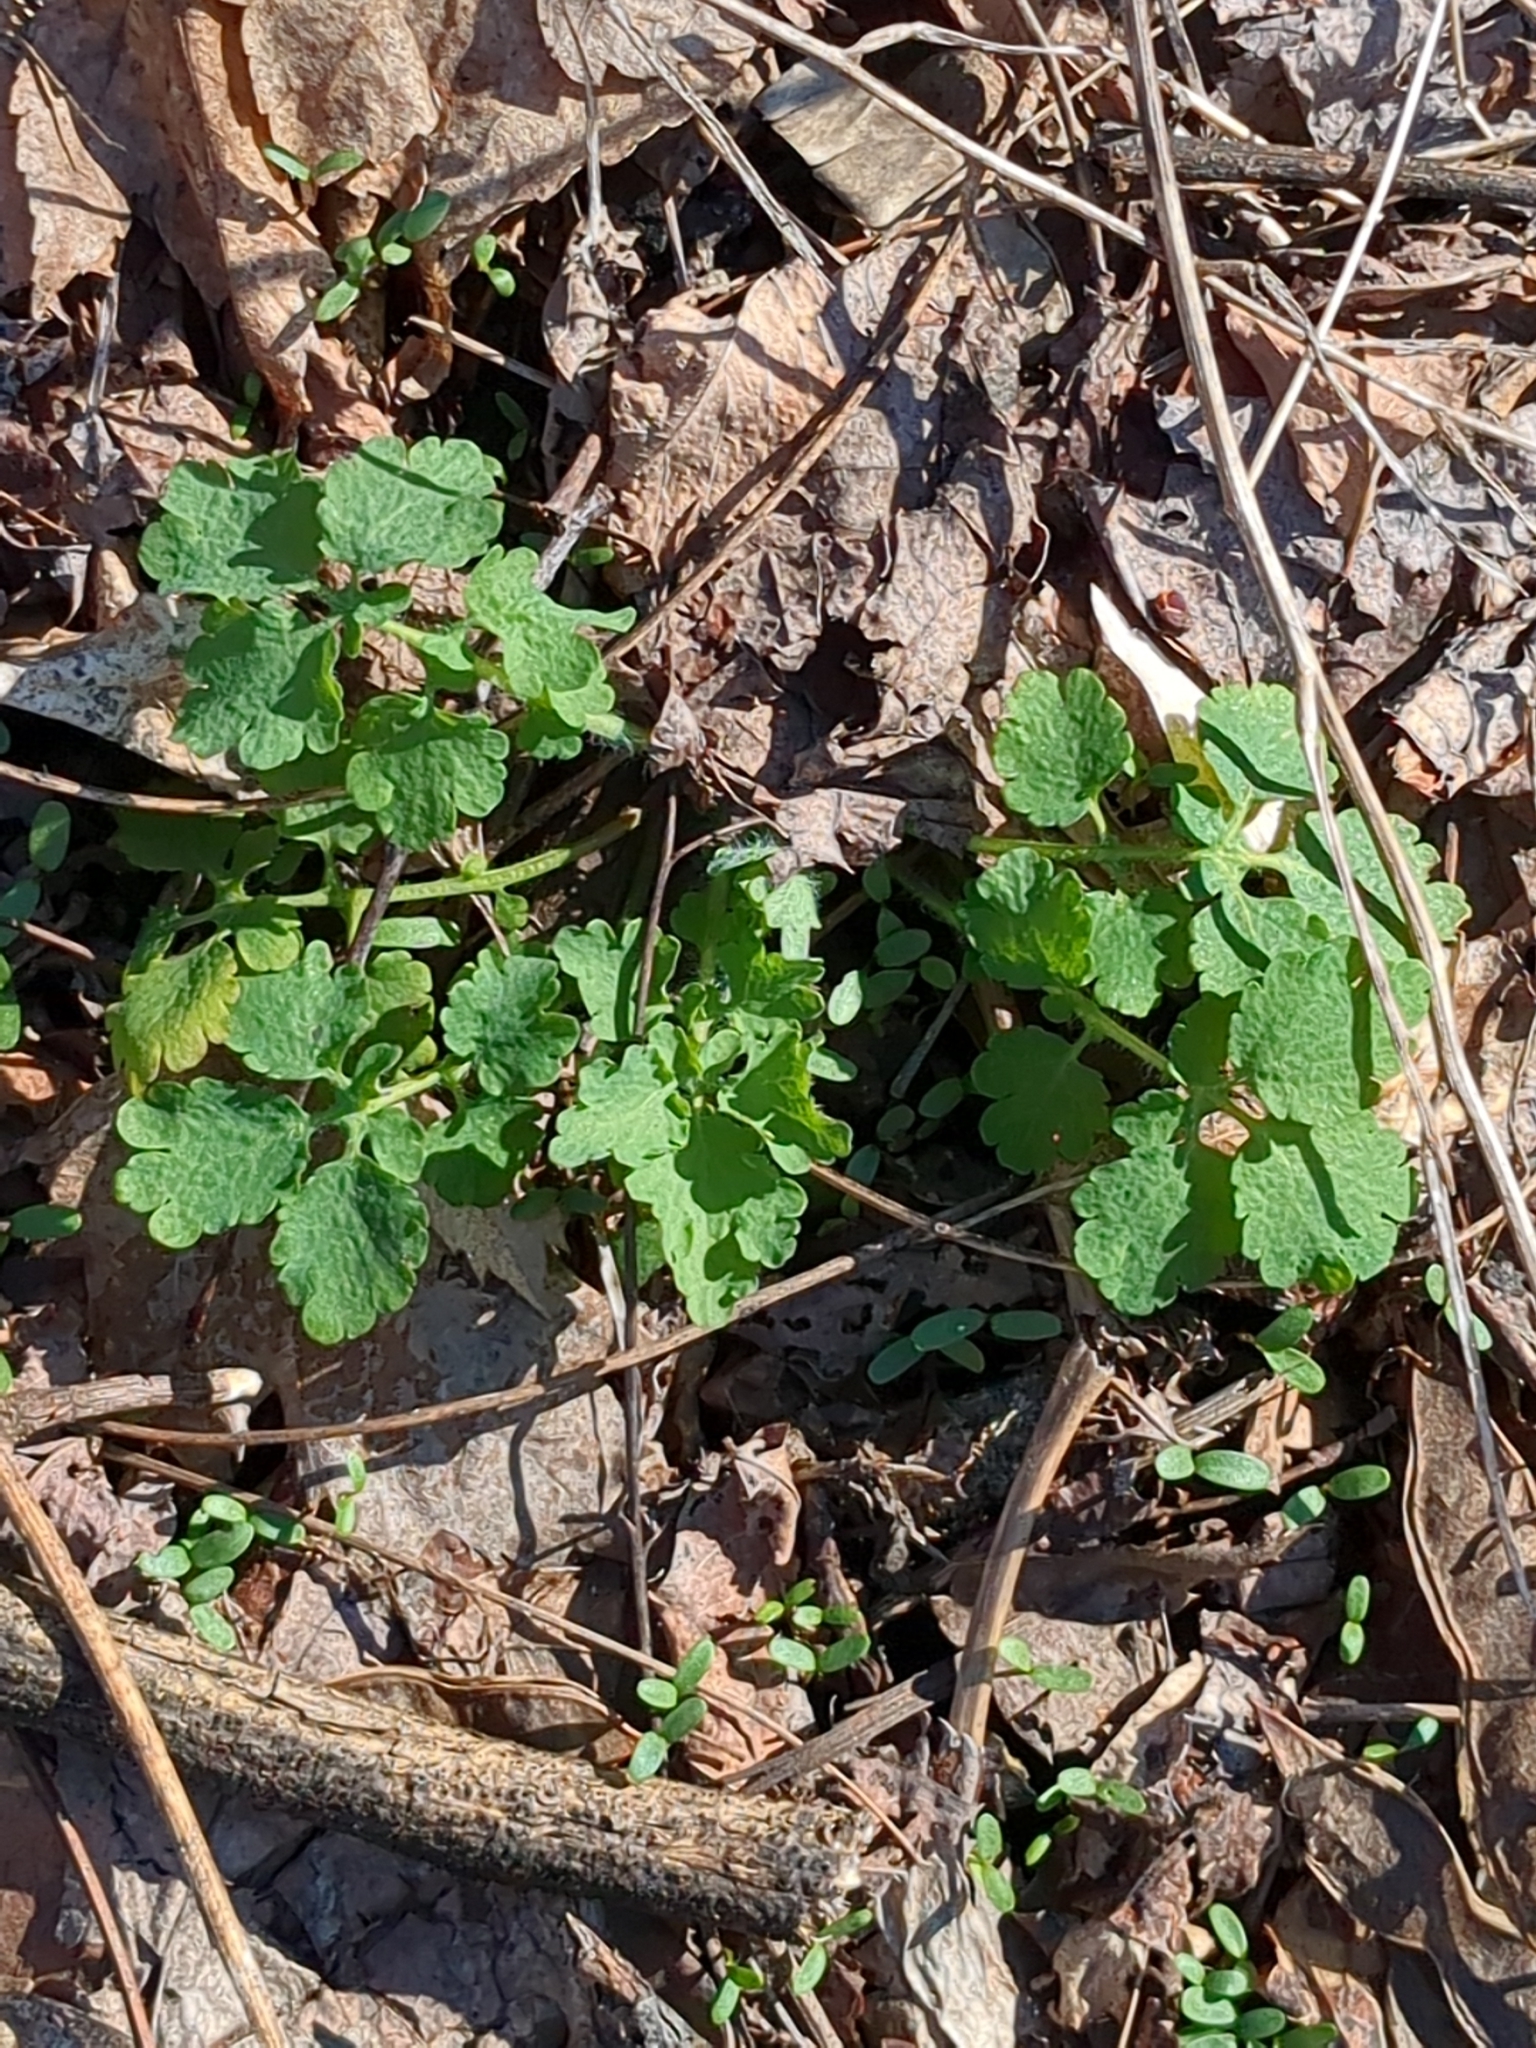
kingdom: Plantae
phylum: Tracheophyta
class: Magnoliopsida
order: Ranunculales
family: Papaveraceae
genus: Chelidonium
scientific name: Chelidonium majus
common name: Greater celandine
